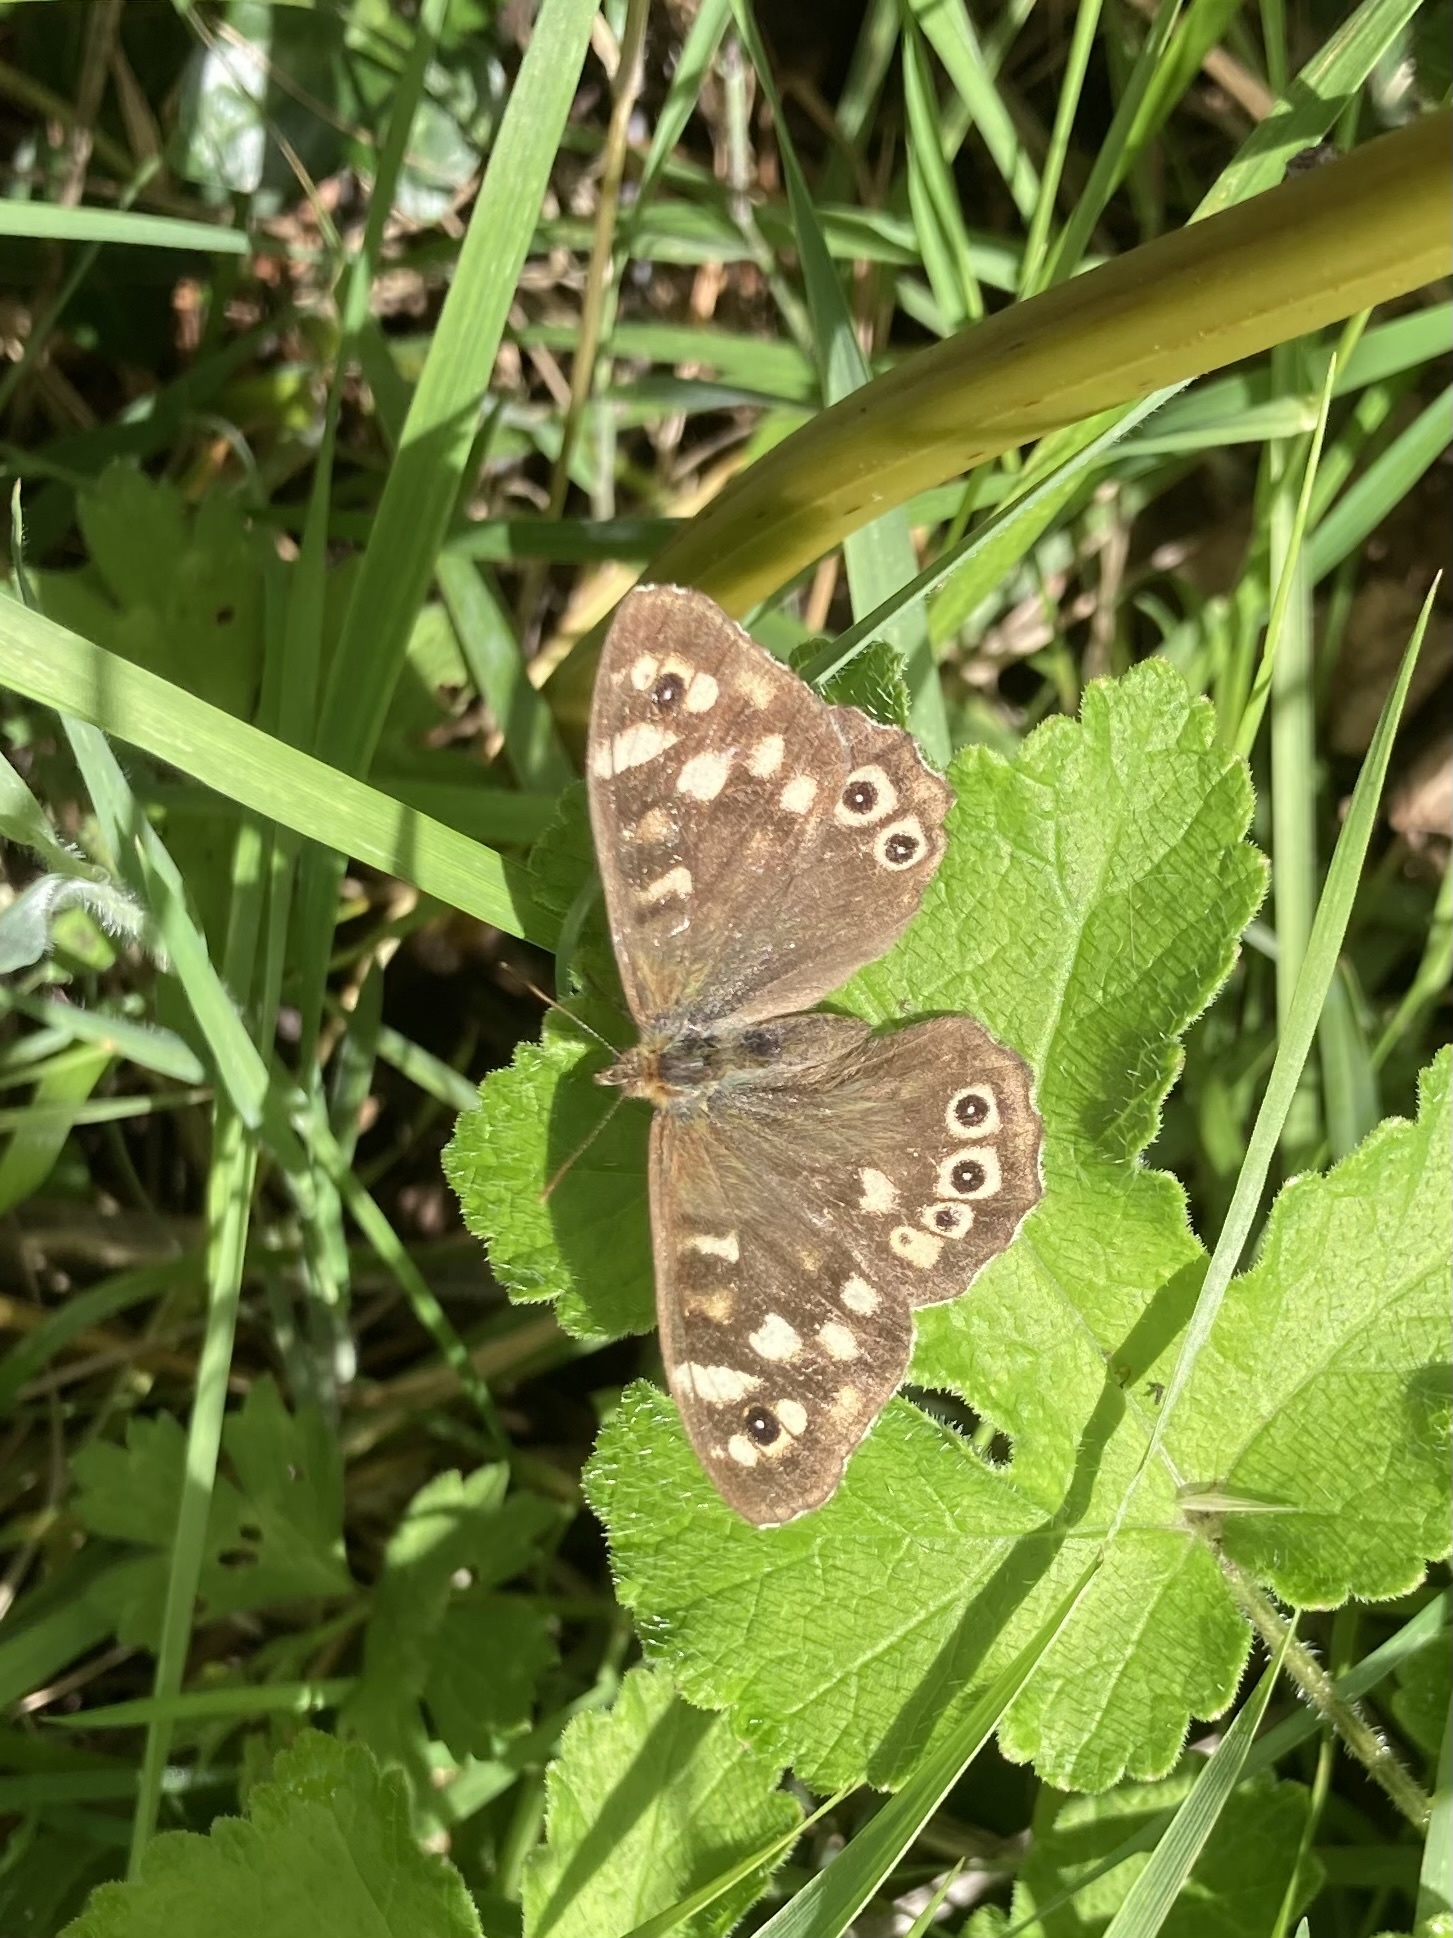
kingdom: Animalia
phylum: Arthropoda
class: Insecta
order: Lepidoptera
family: Nymphalidae
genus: Pararge
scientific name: Pararge aegeria
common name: Speckled wood
